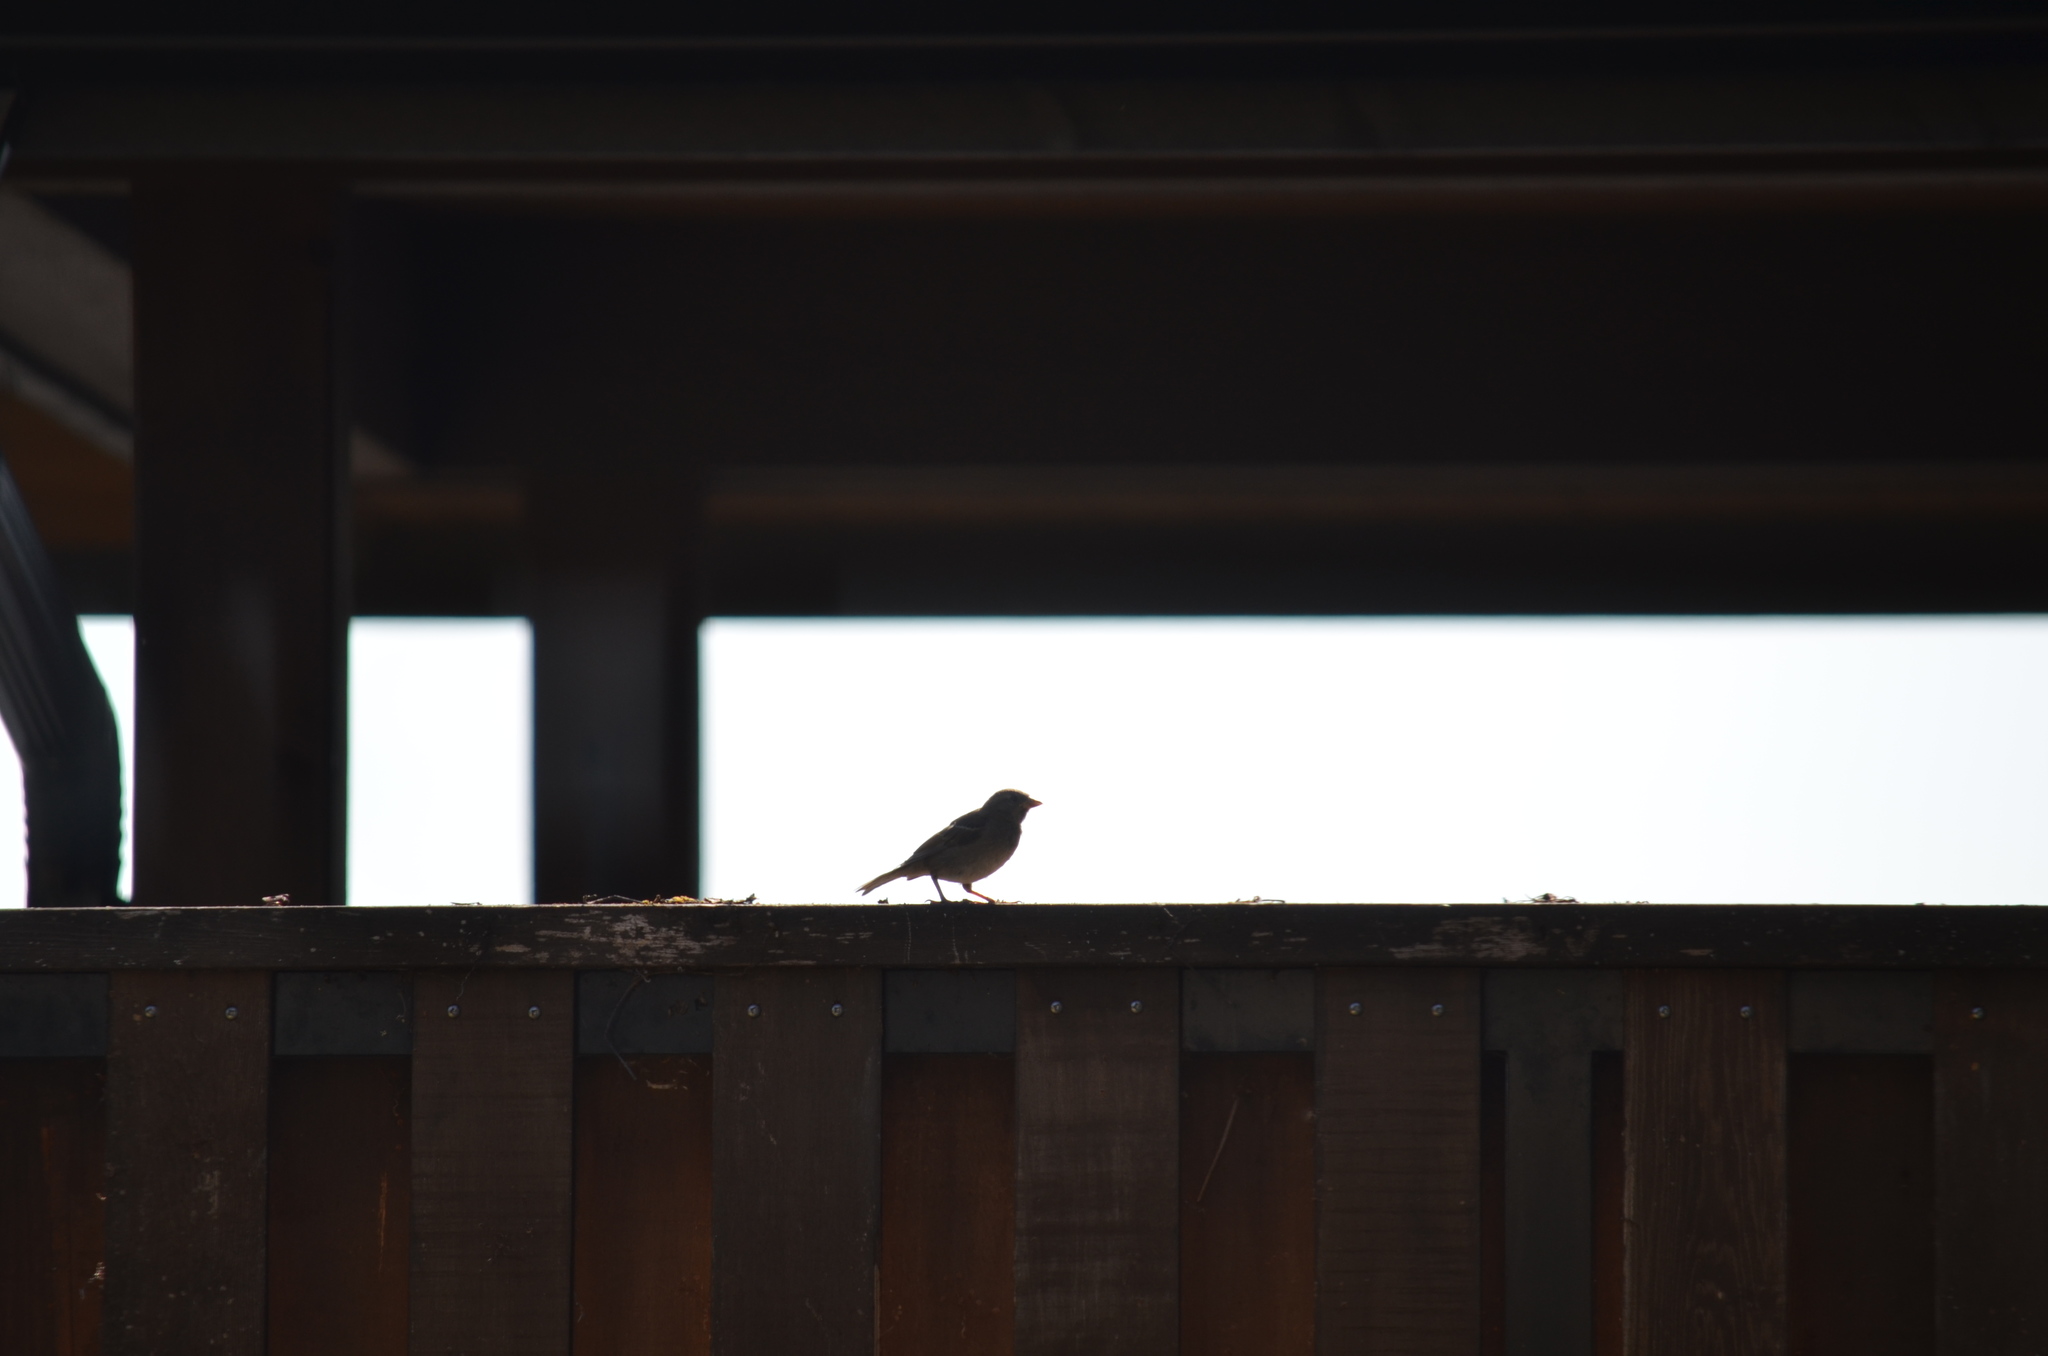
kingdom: Animalia
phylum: Chordata
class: Aves
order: Passeriformes
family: Passeridae
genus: Passer
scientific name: Passer domesticus
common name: House sparrow
